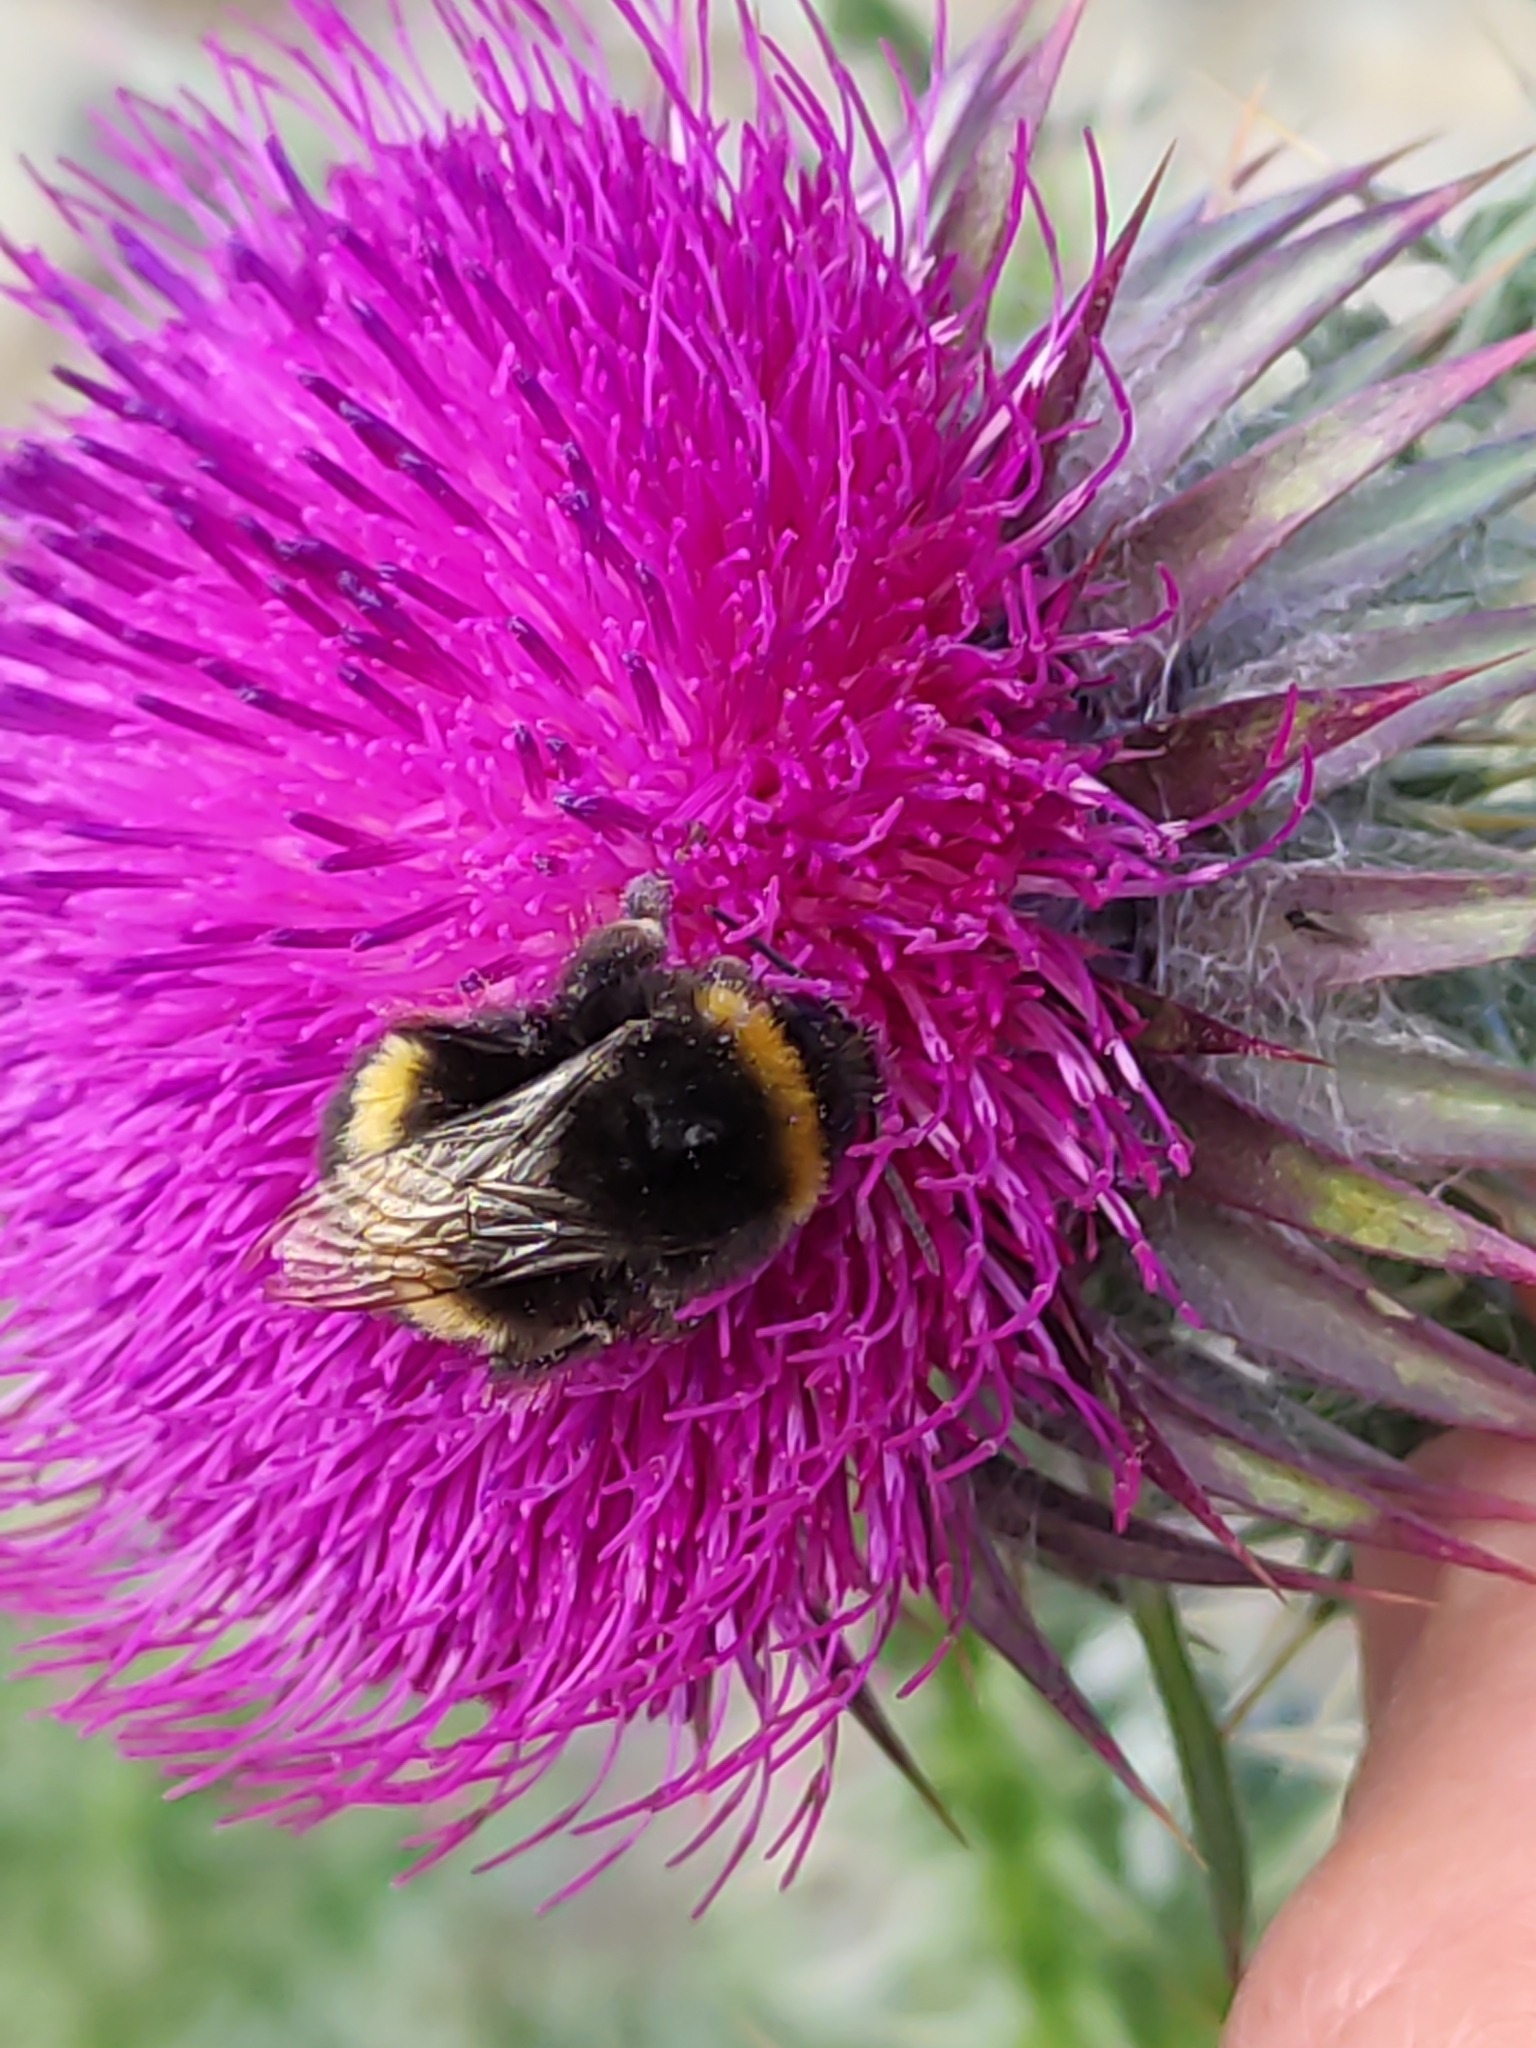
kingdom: Animalia
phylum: Arthropoda
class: Insecta
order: Hymenoptera
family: Apidae
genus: Bombus
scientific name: Bombus terrestris
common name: Buff-tailed bumblebee
